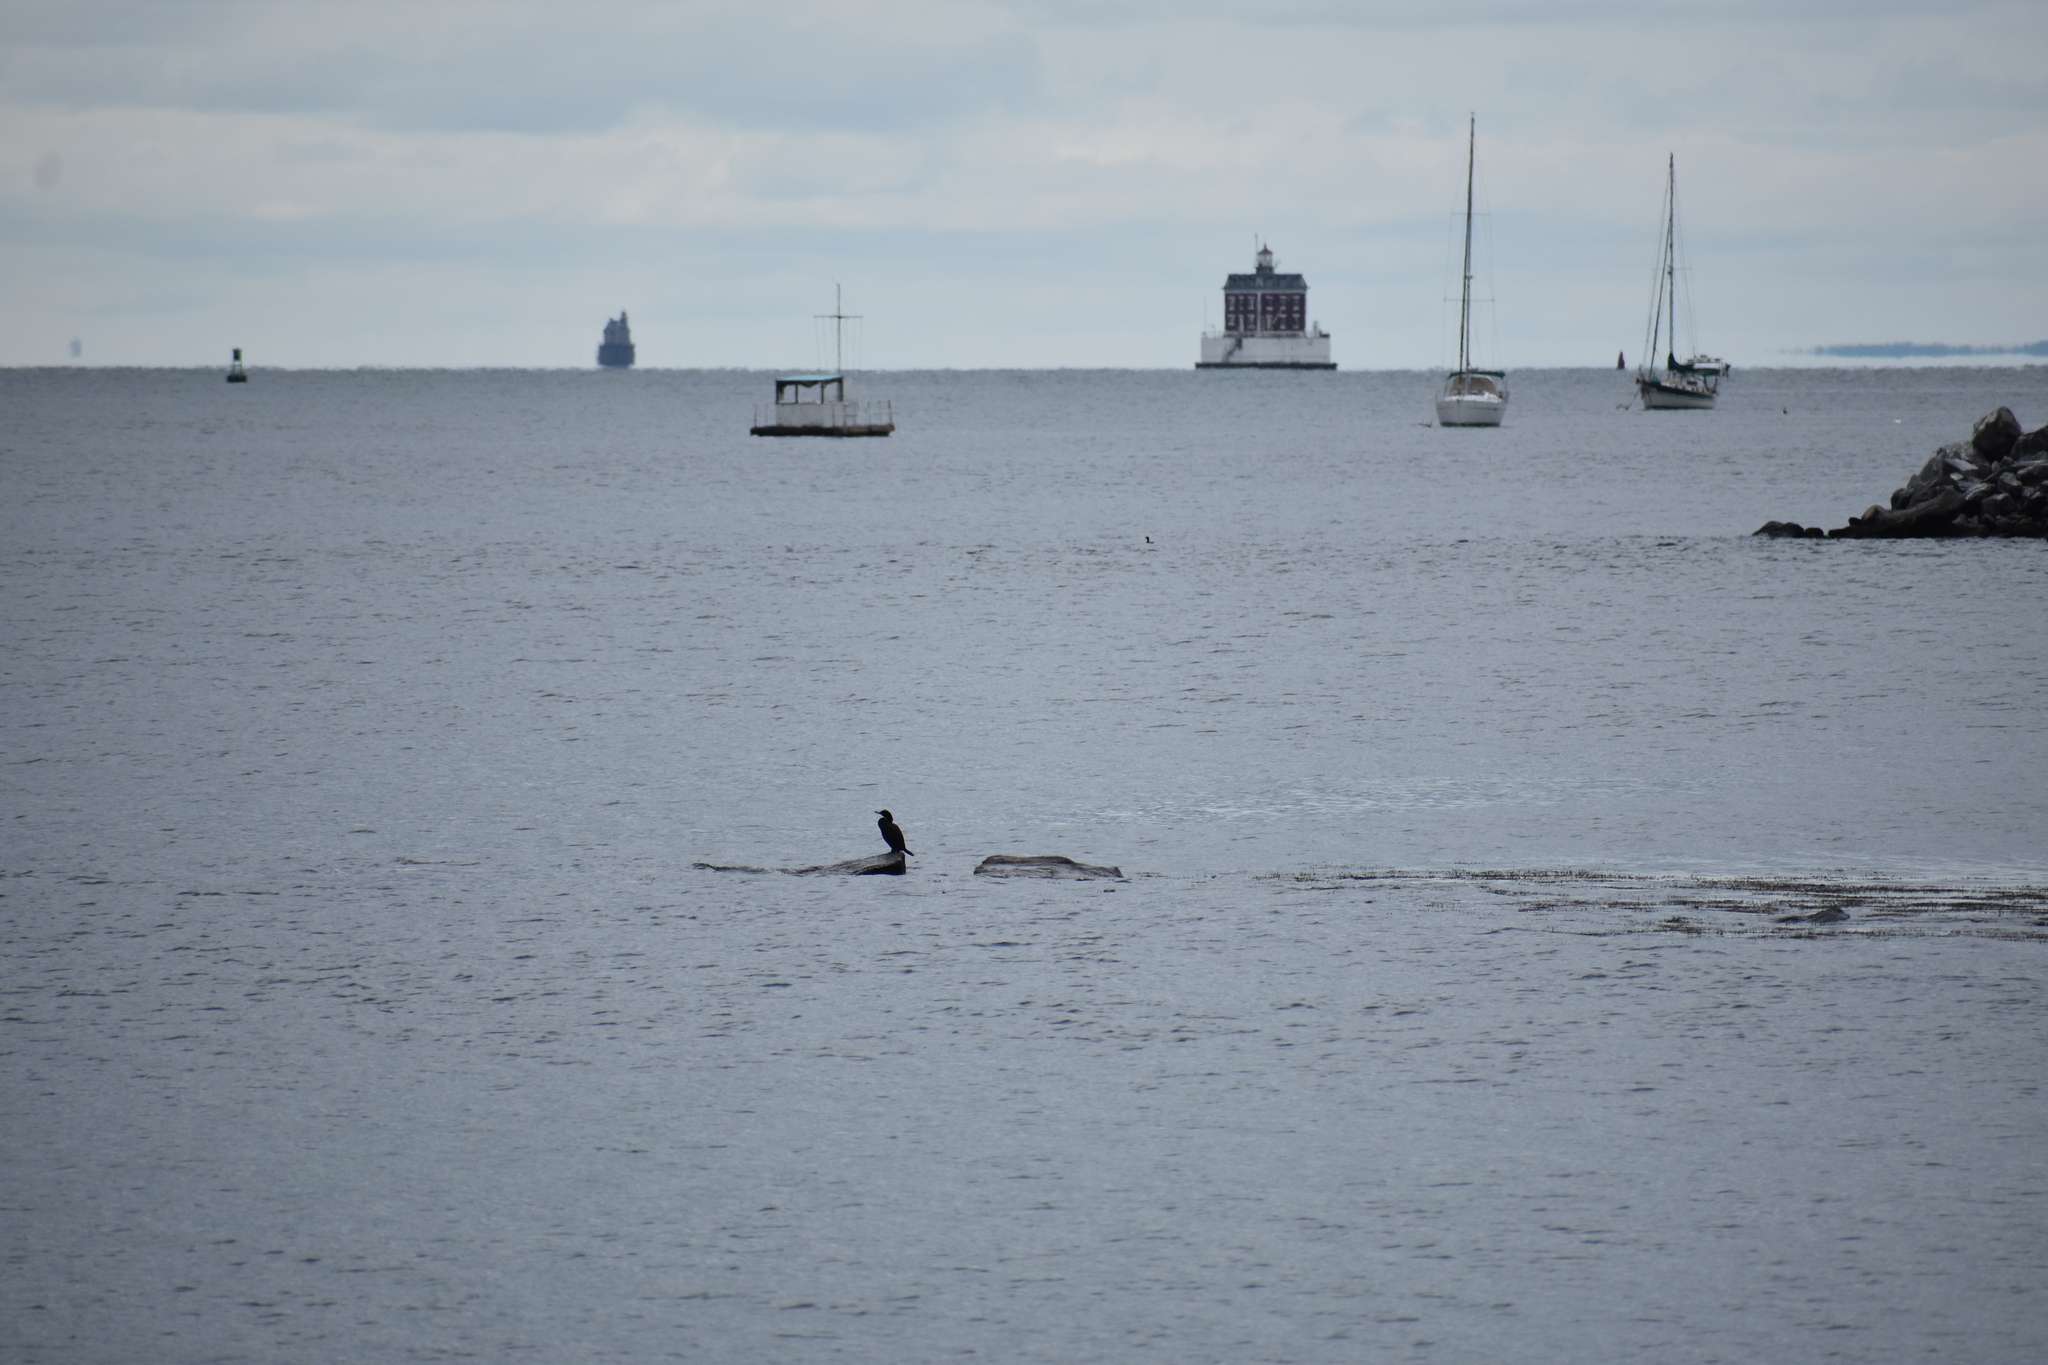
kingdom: Animalia
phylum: Chordata
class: Aves
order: Suliformes
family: Phalacrocoracidae
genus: Phalacrocorax
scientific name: Phalacrocorax auritus
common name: Double-crested cormorant
